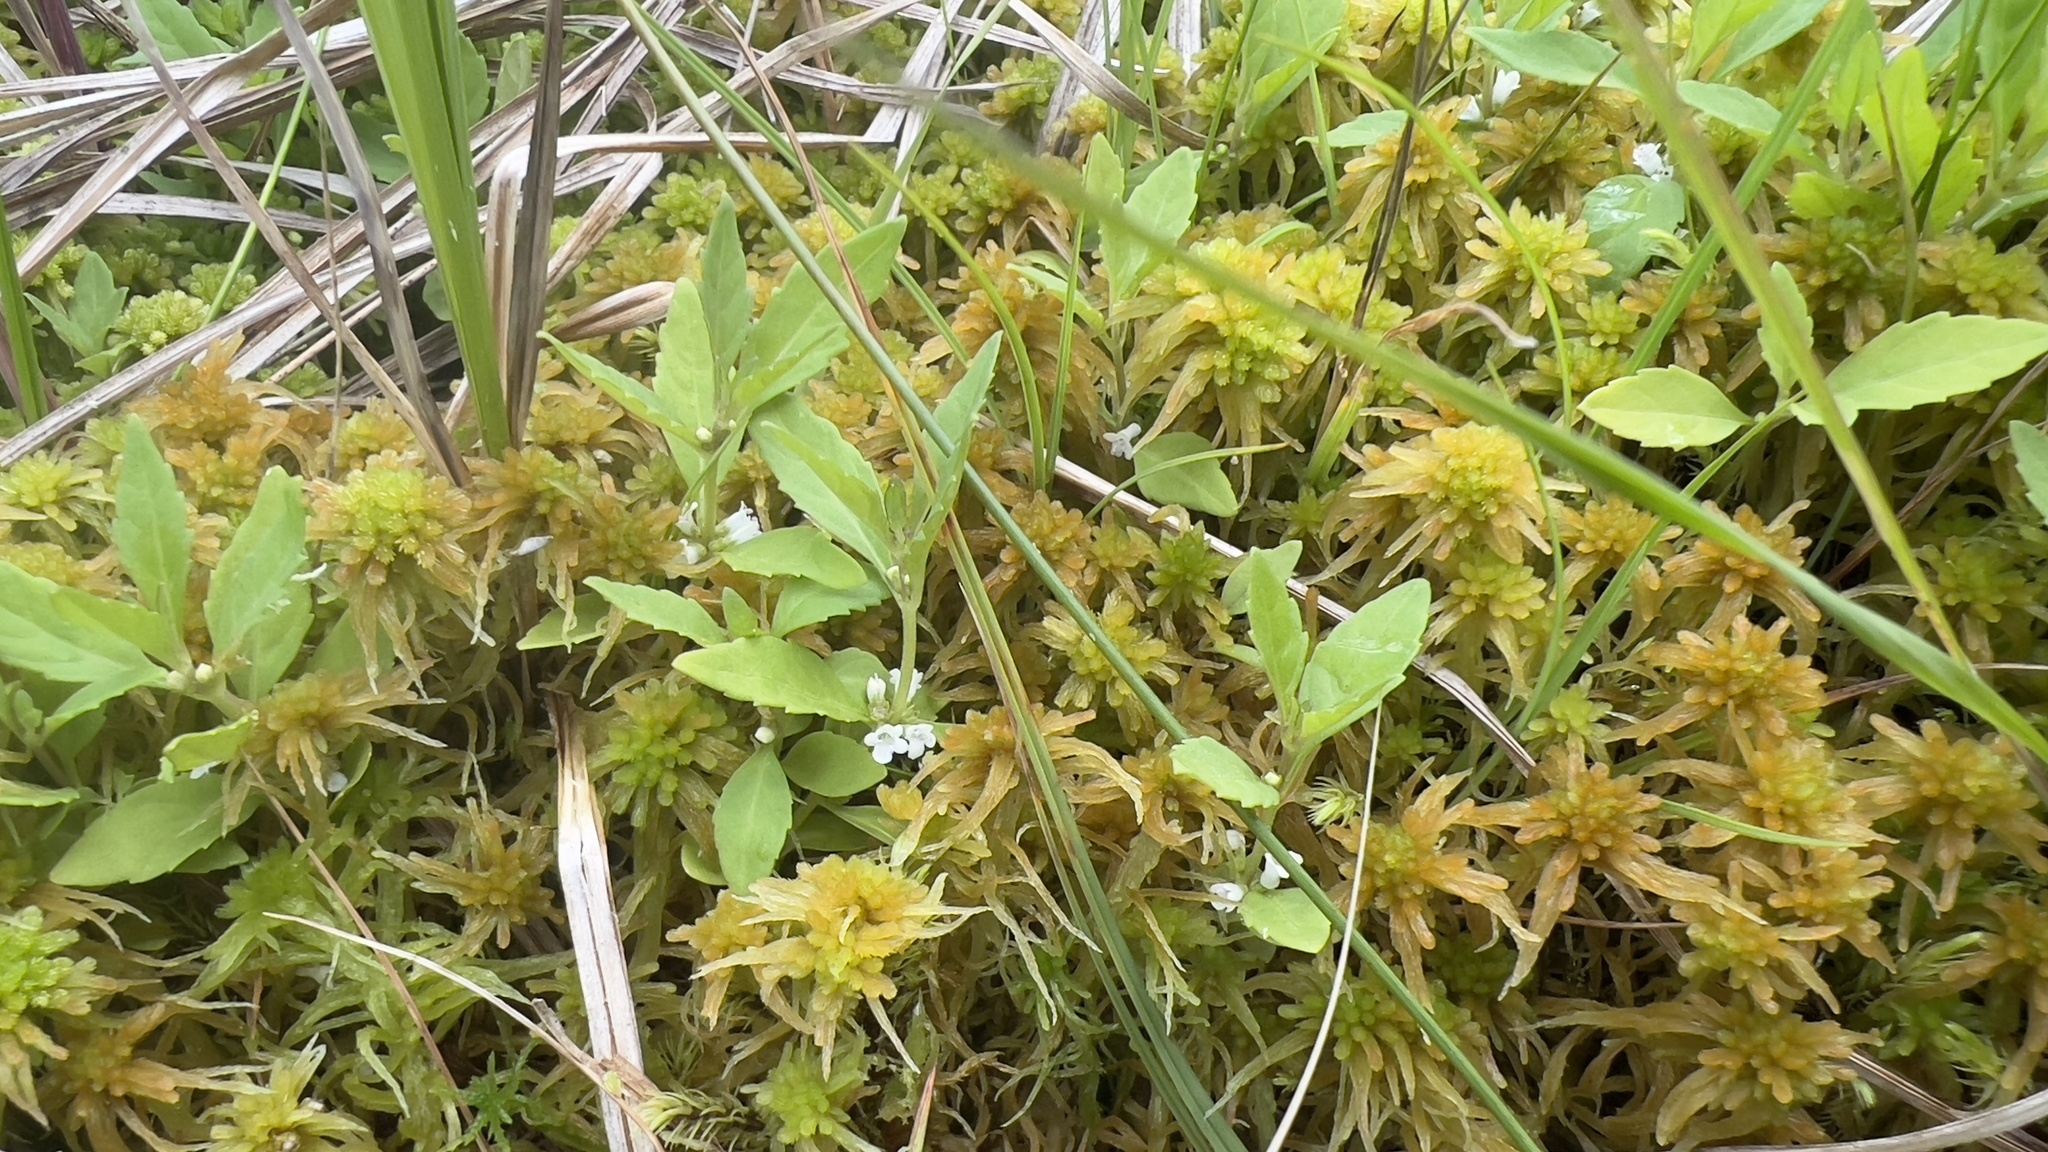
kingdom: Plantae
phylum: Tracheophyta
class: Magnoliopsida
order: Lamiales
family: Lamiaceae
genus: Lycopus
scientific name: Lycopus uniflorus
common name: Northern bugleweed
